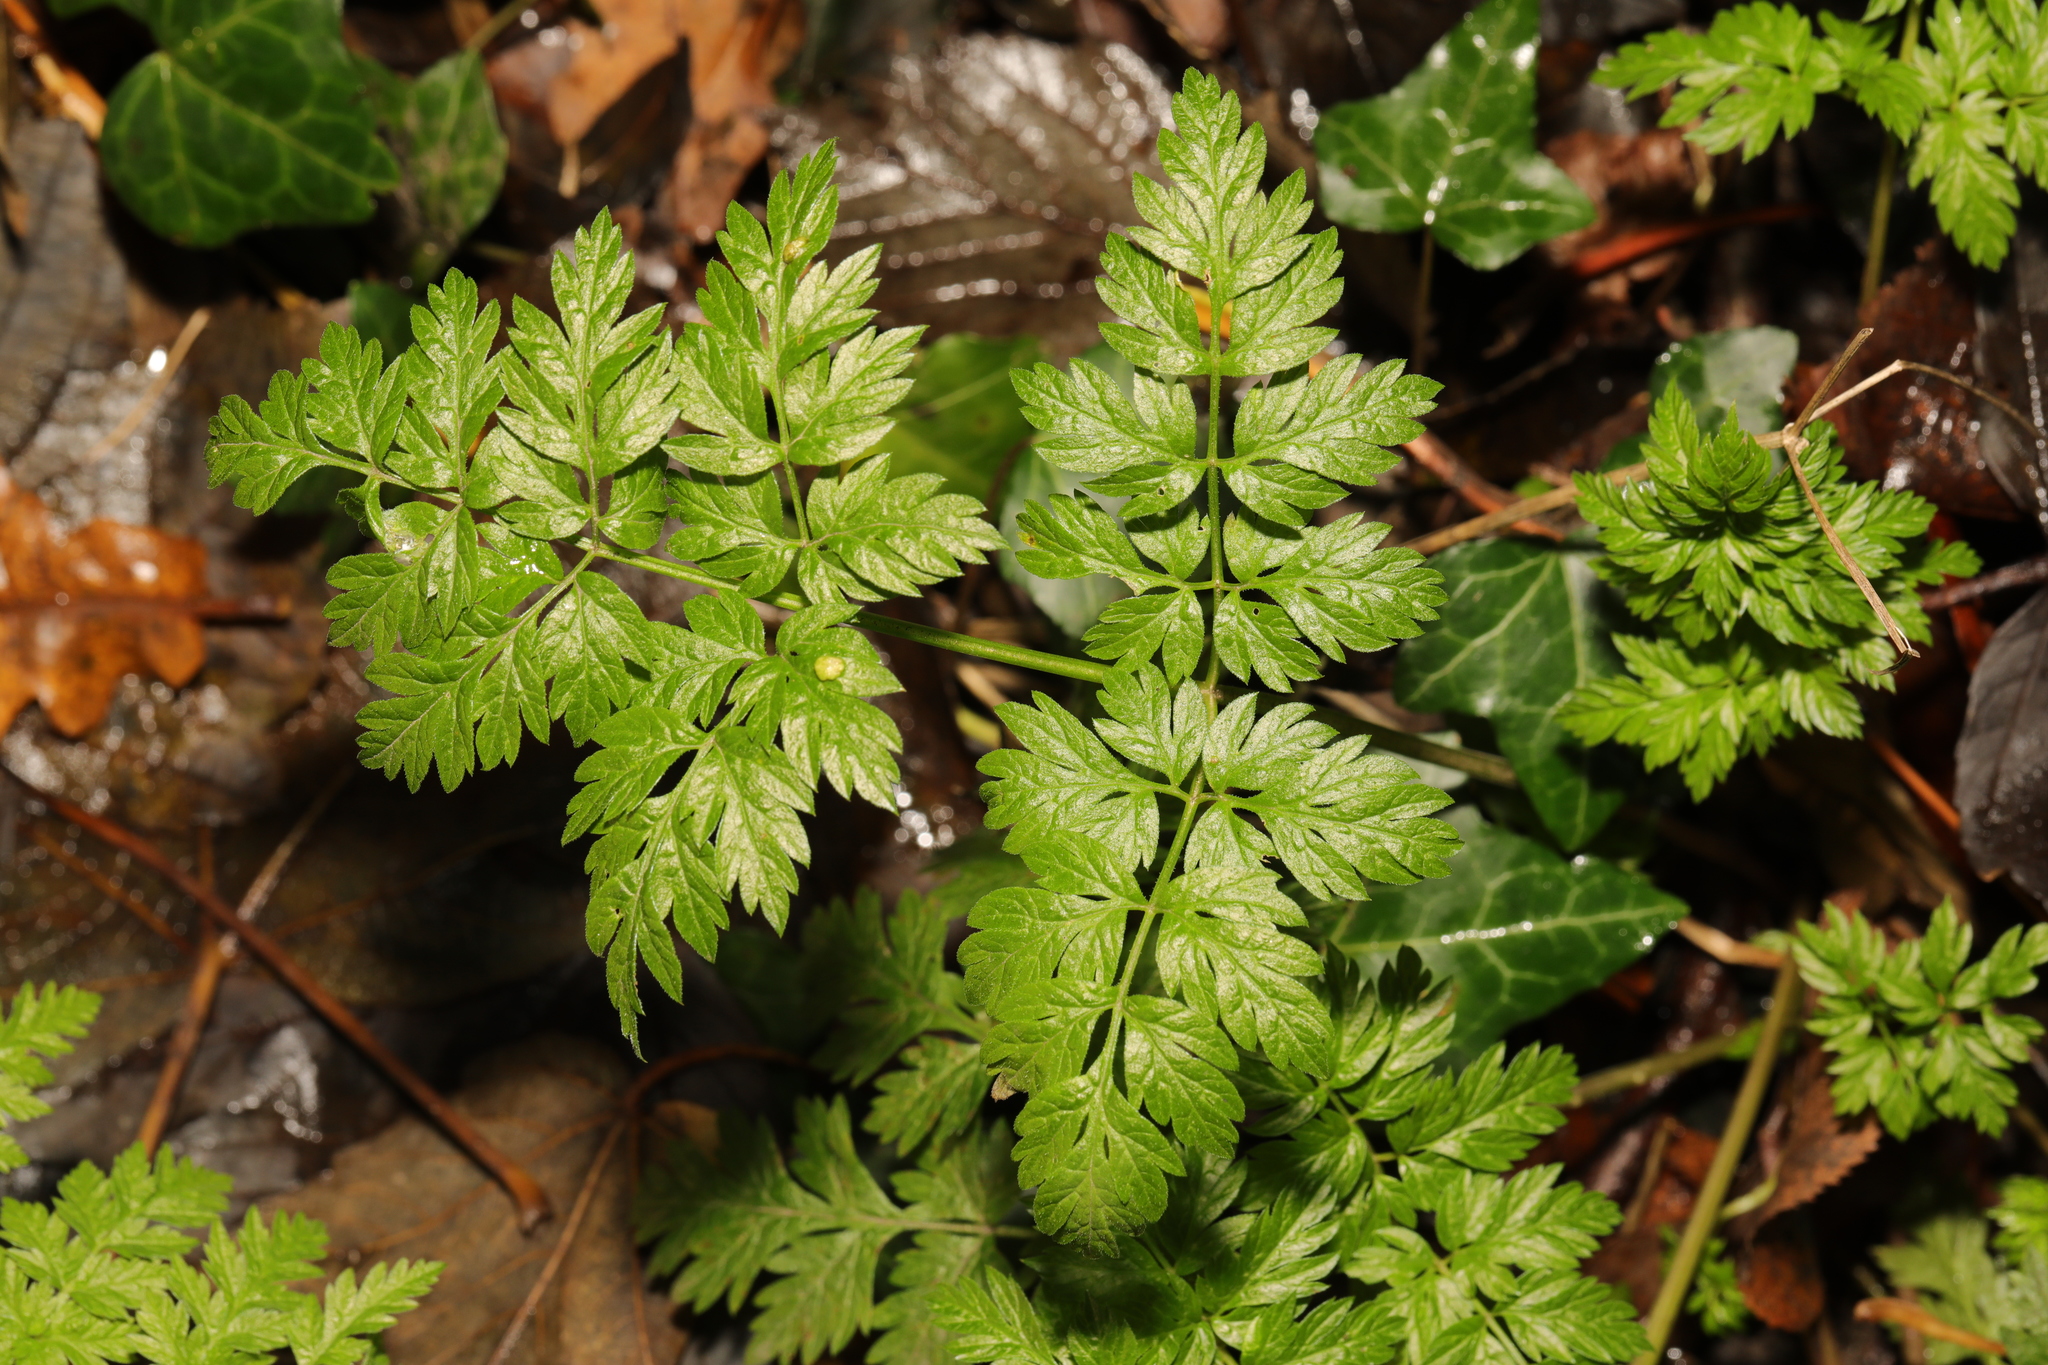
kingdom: Plantae
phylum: Tracheophyta
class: Magnoliopsida
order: Apiales
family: Apiaceae
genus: Anthriscus
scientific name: Anthriscus sylvestris
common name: Cow parsley
